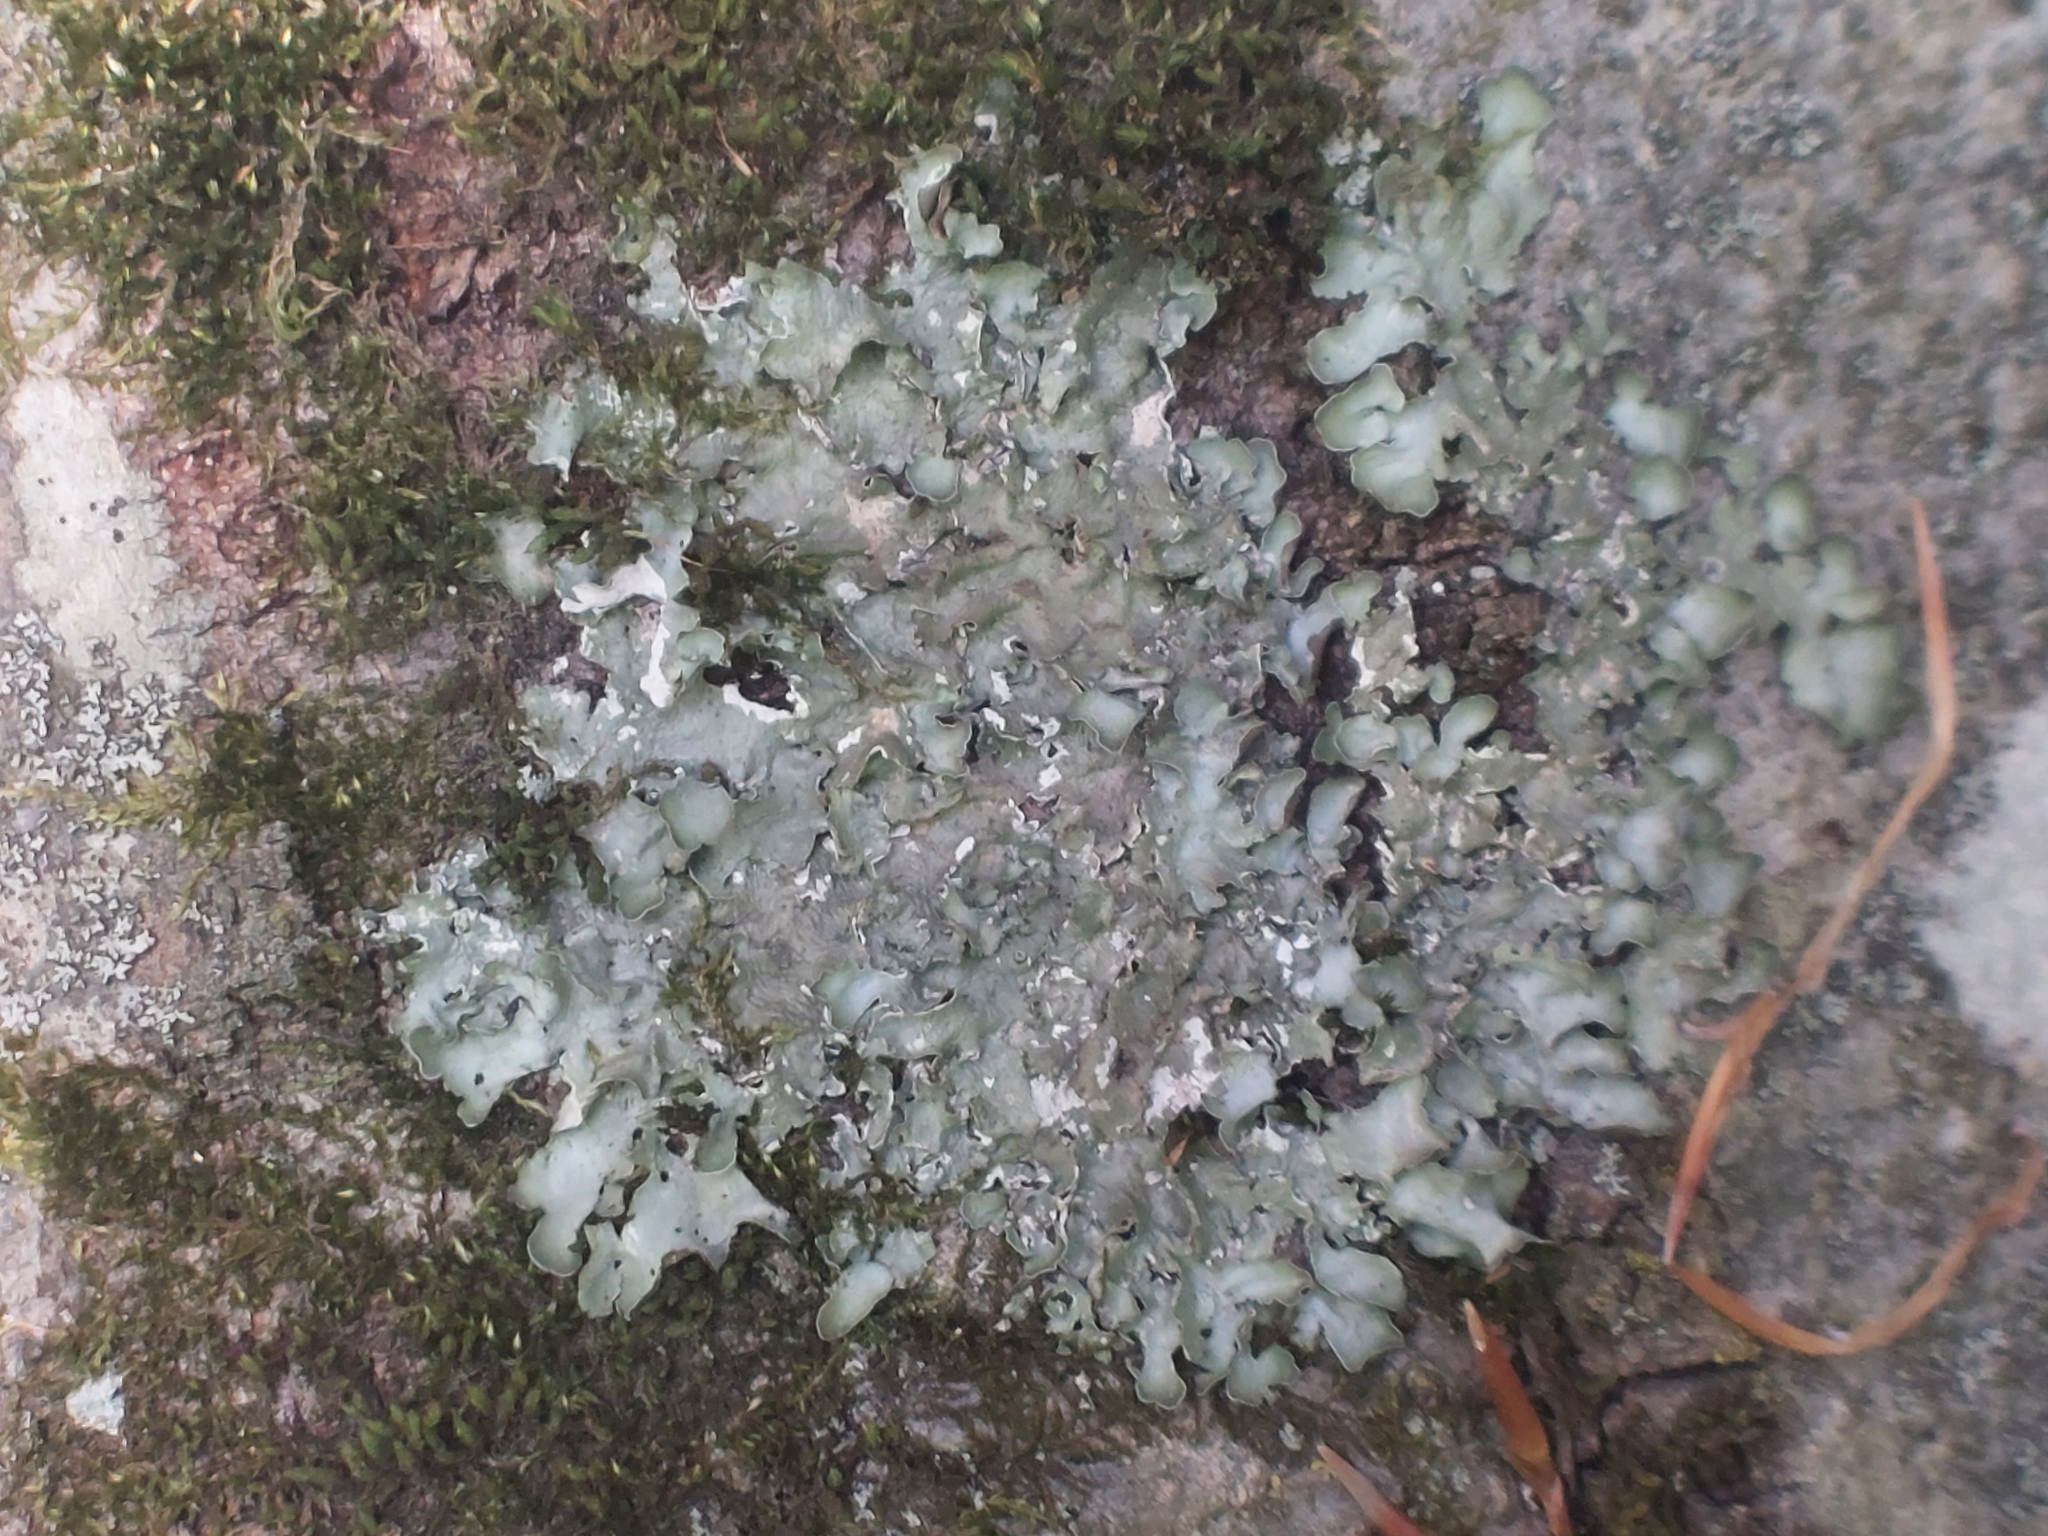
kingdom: Fungi
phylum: Ascomycota
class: Lecanoromycetes
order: Lecanorales
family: Parmeliaceae
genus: Pleurosticta
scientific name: Pleurosticta acetabulum
